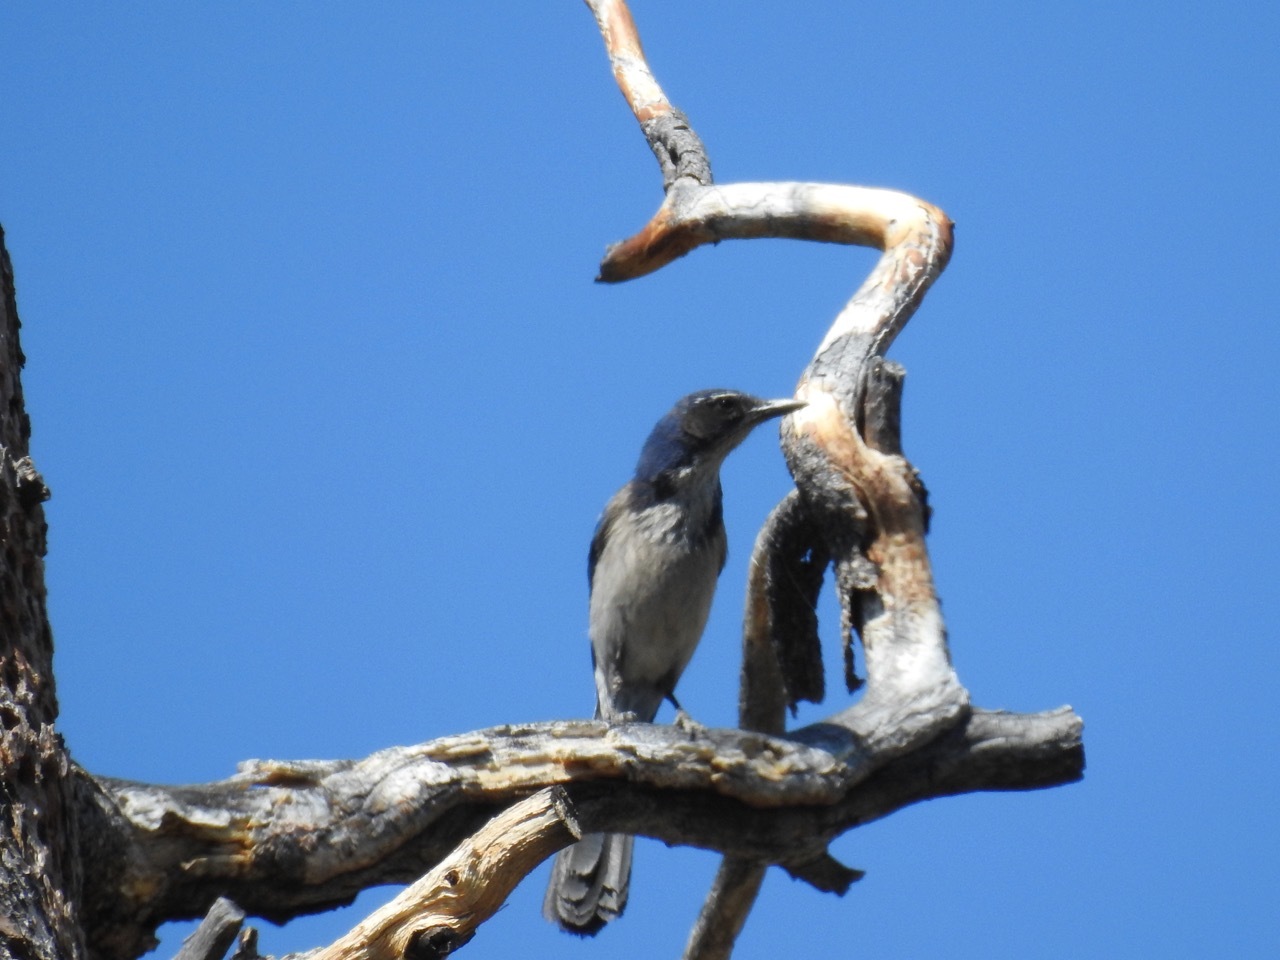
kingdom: Animalia
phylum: Chordata
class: Aves
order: Passeriformes
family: Corvidae
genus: Aphelocoma
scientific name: Aphelocoma californica
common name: California scrub-jay
